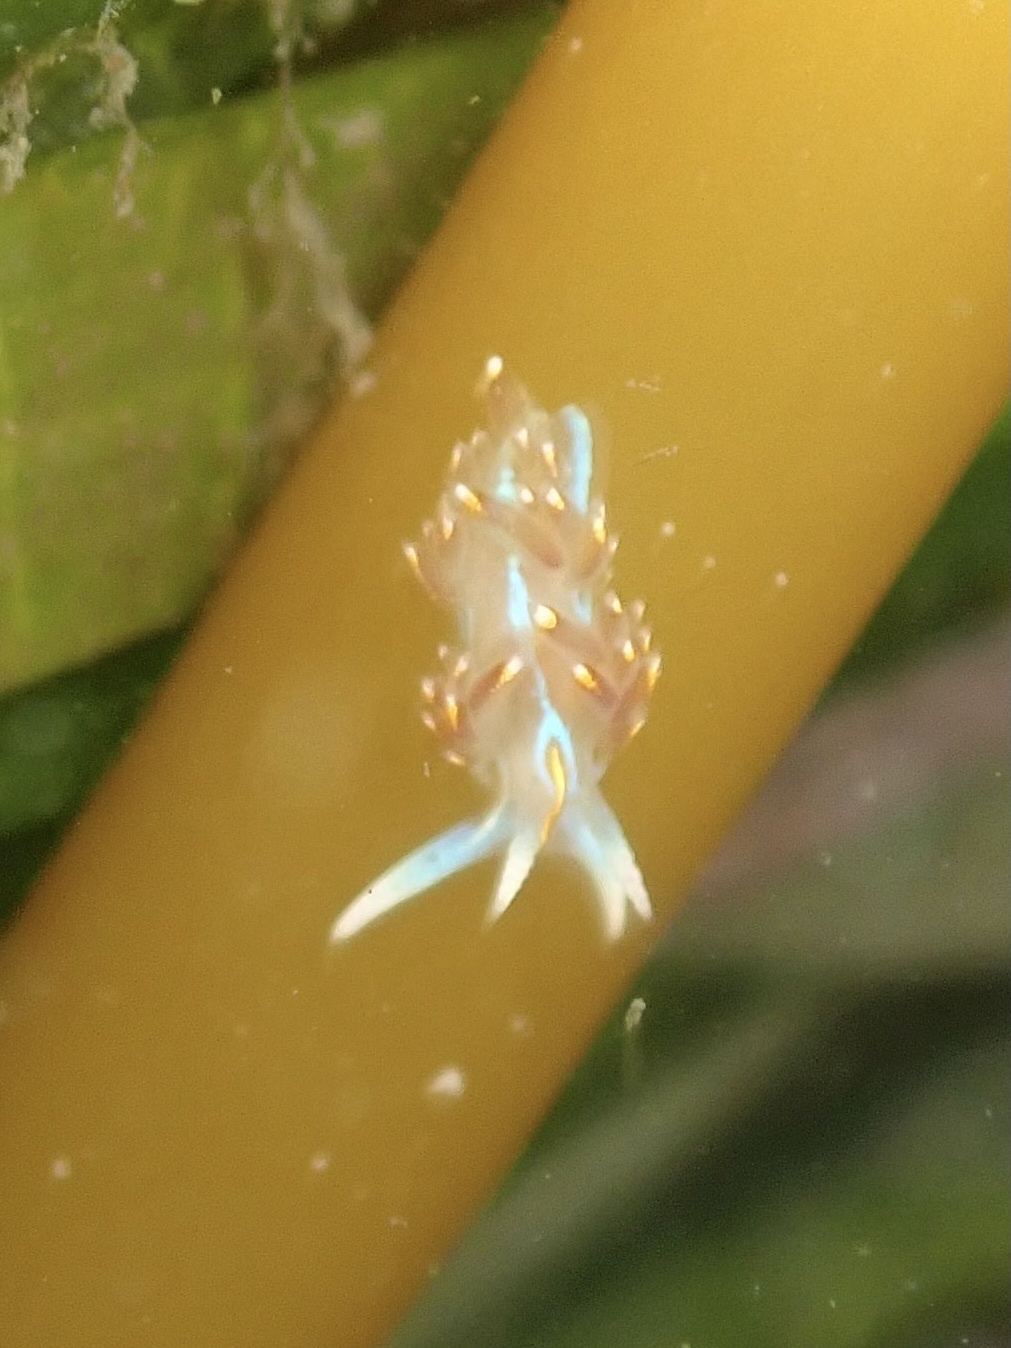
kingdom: Animalia
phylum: Mollusca
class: Gastropoda
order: Nudibranchia
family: Myrrhinidae
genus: Hermissenda
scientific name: Hermissenda opalescens
